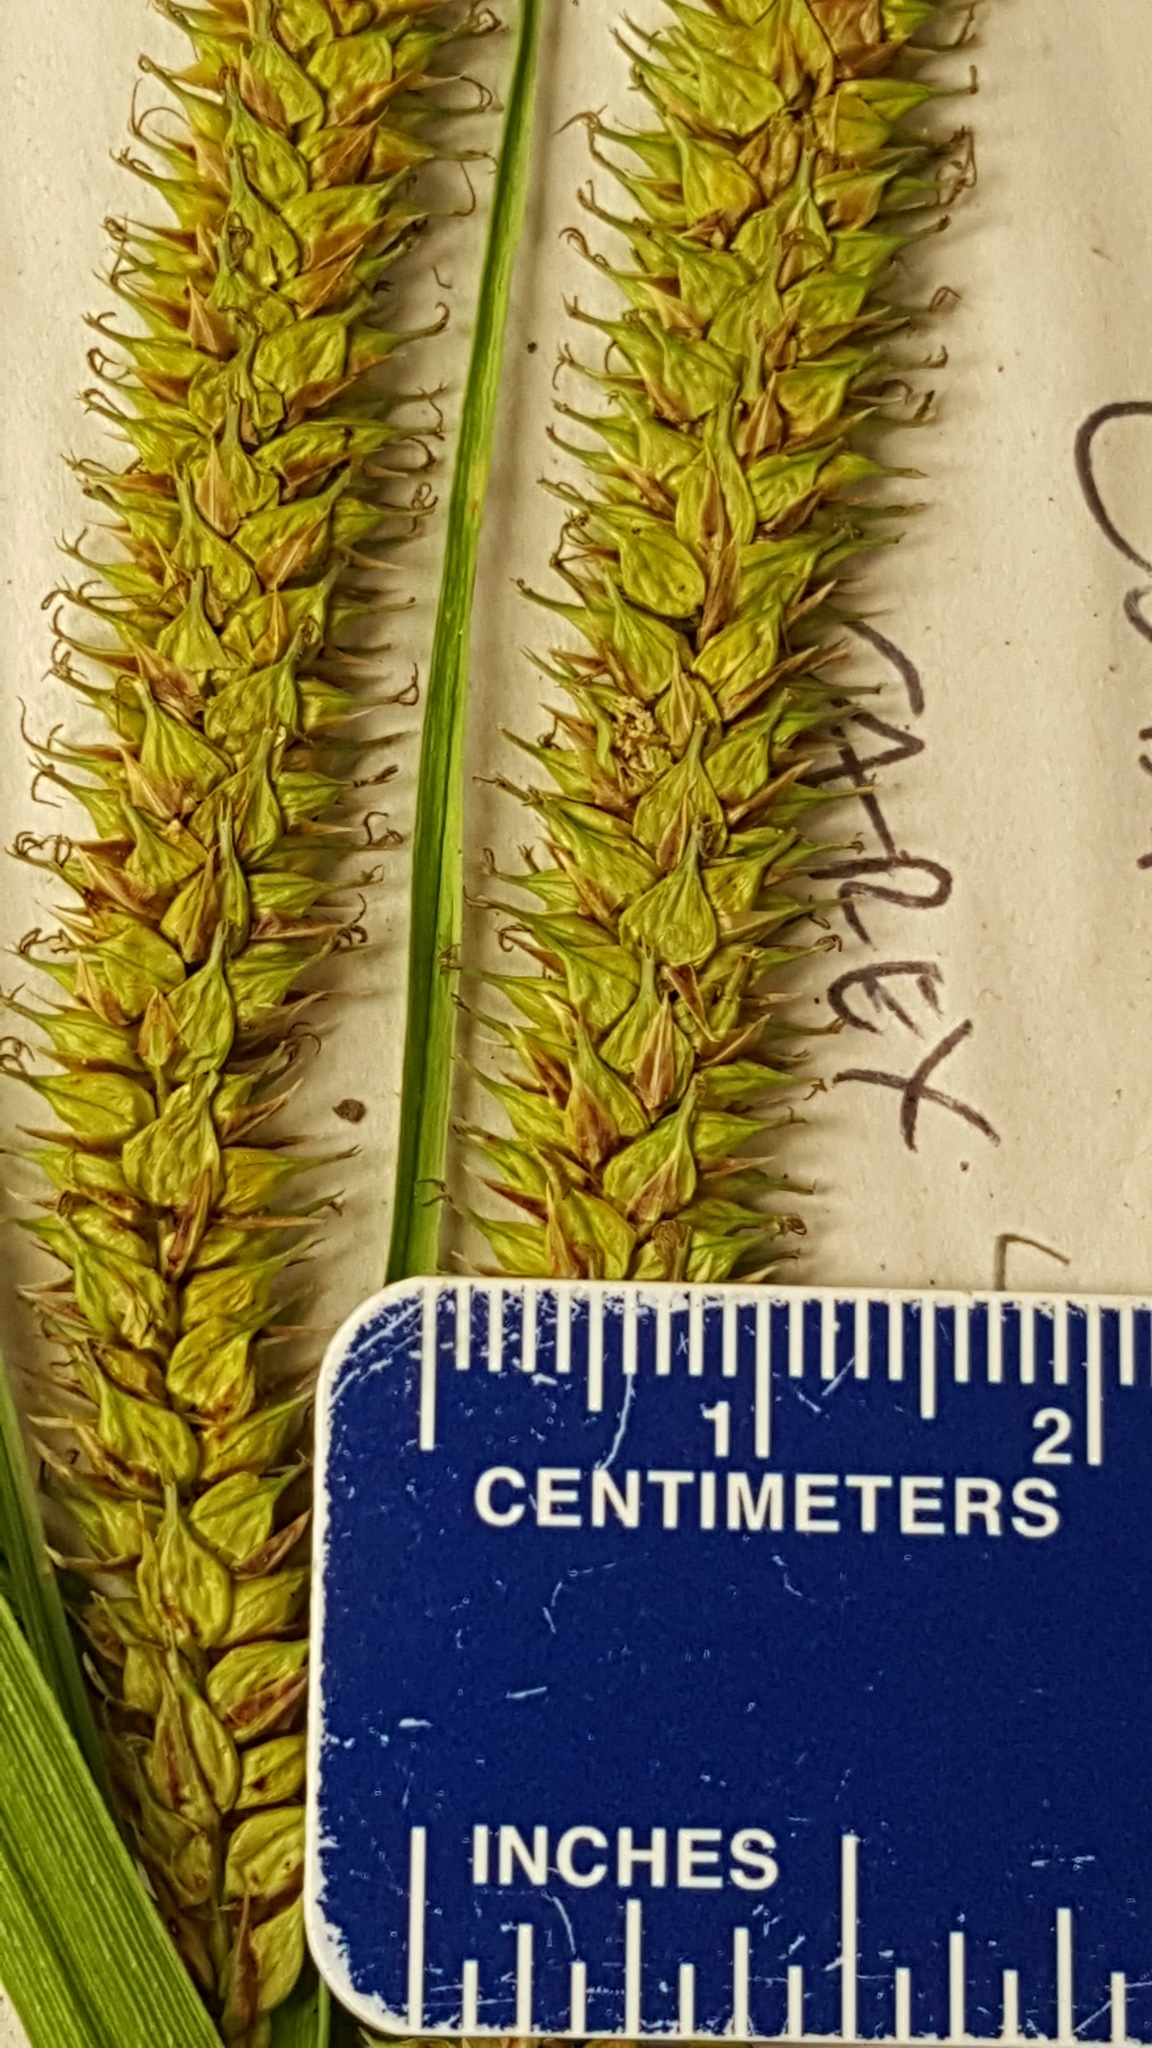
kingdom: Plantae
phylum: Tracheophyta
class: Liliopsida
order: Poales
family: Cyperaceae
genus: Carex
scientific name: Carex utriculata
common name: Beaked sedge
